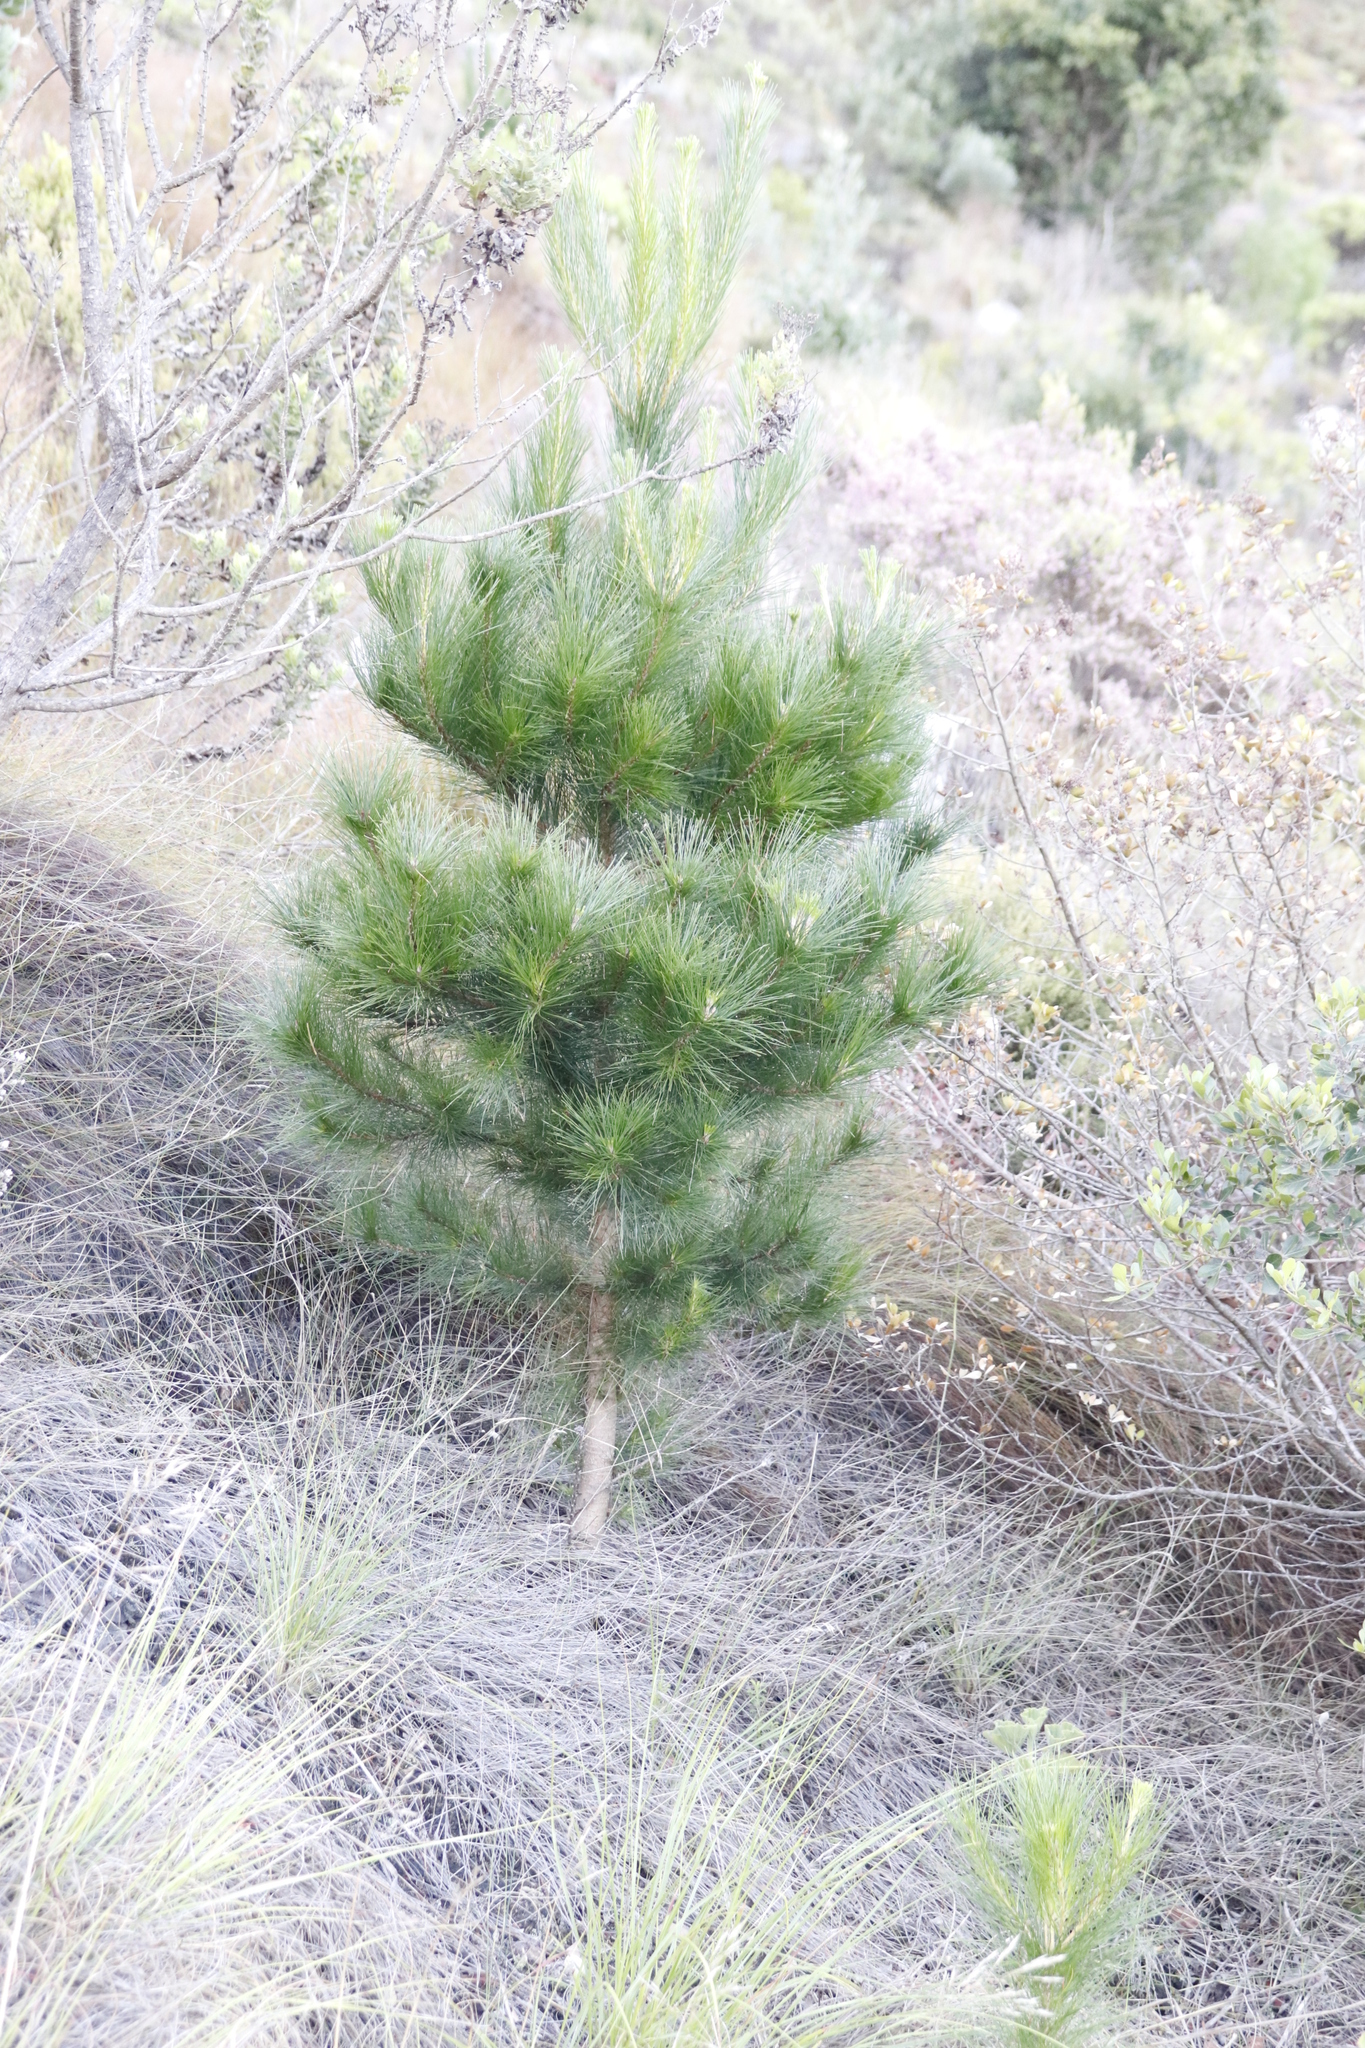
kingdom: Plantae
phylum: Tracheophyta
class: Pinopsida
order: Pinales
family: Pinaceae
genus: Pinus
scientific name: Pinus radiata
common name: Monterey pine
